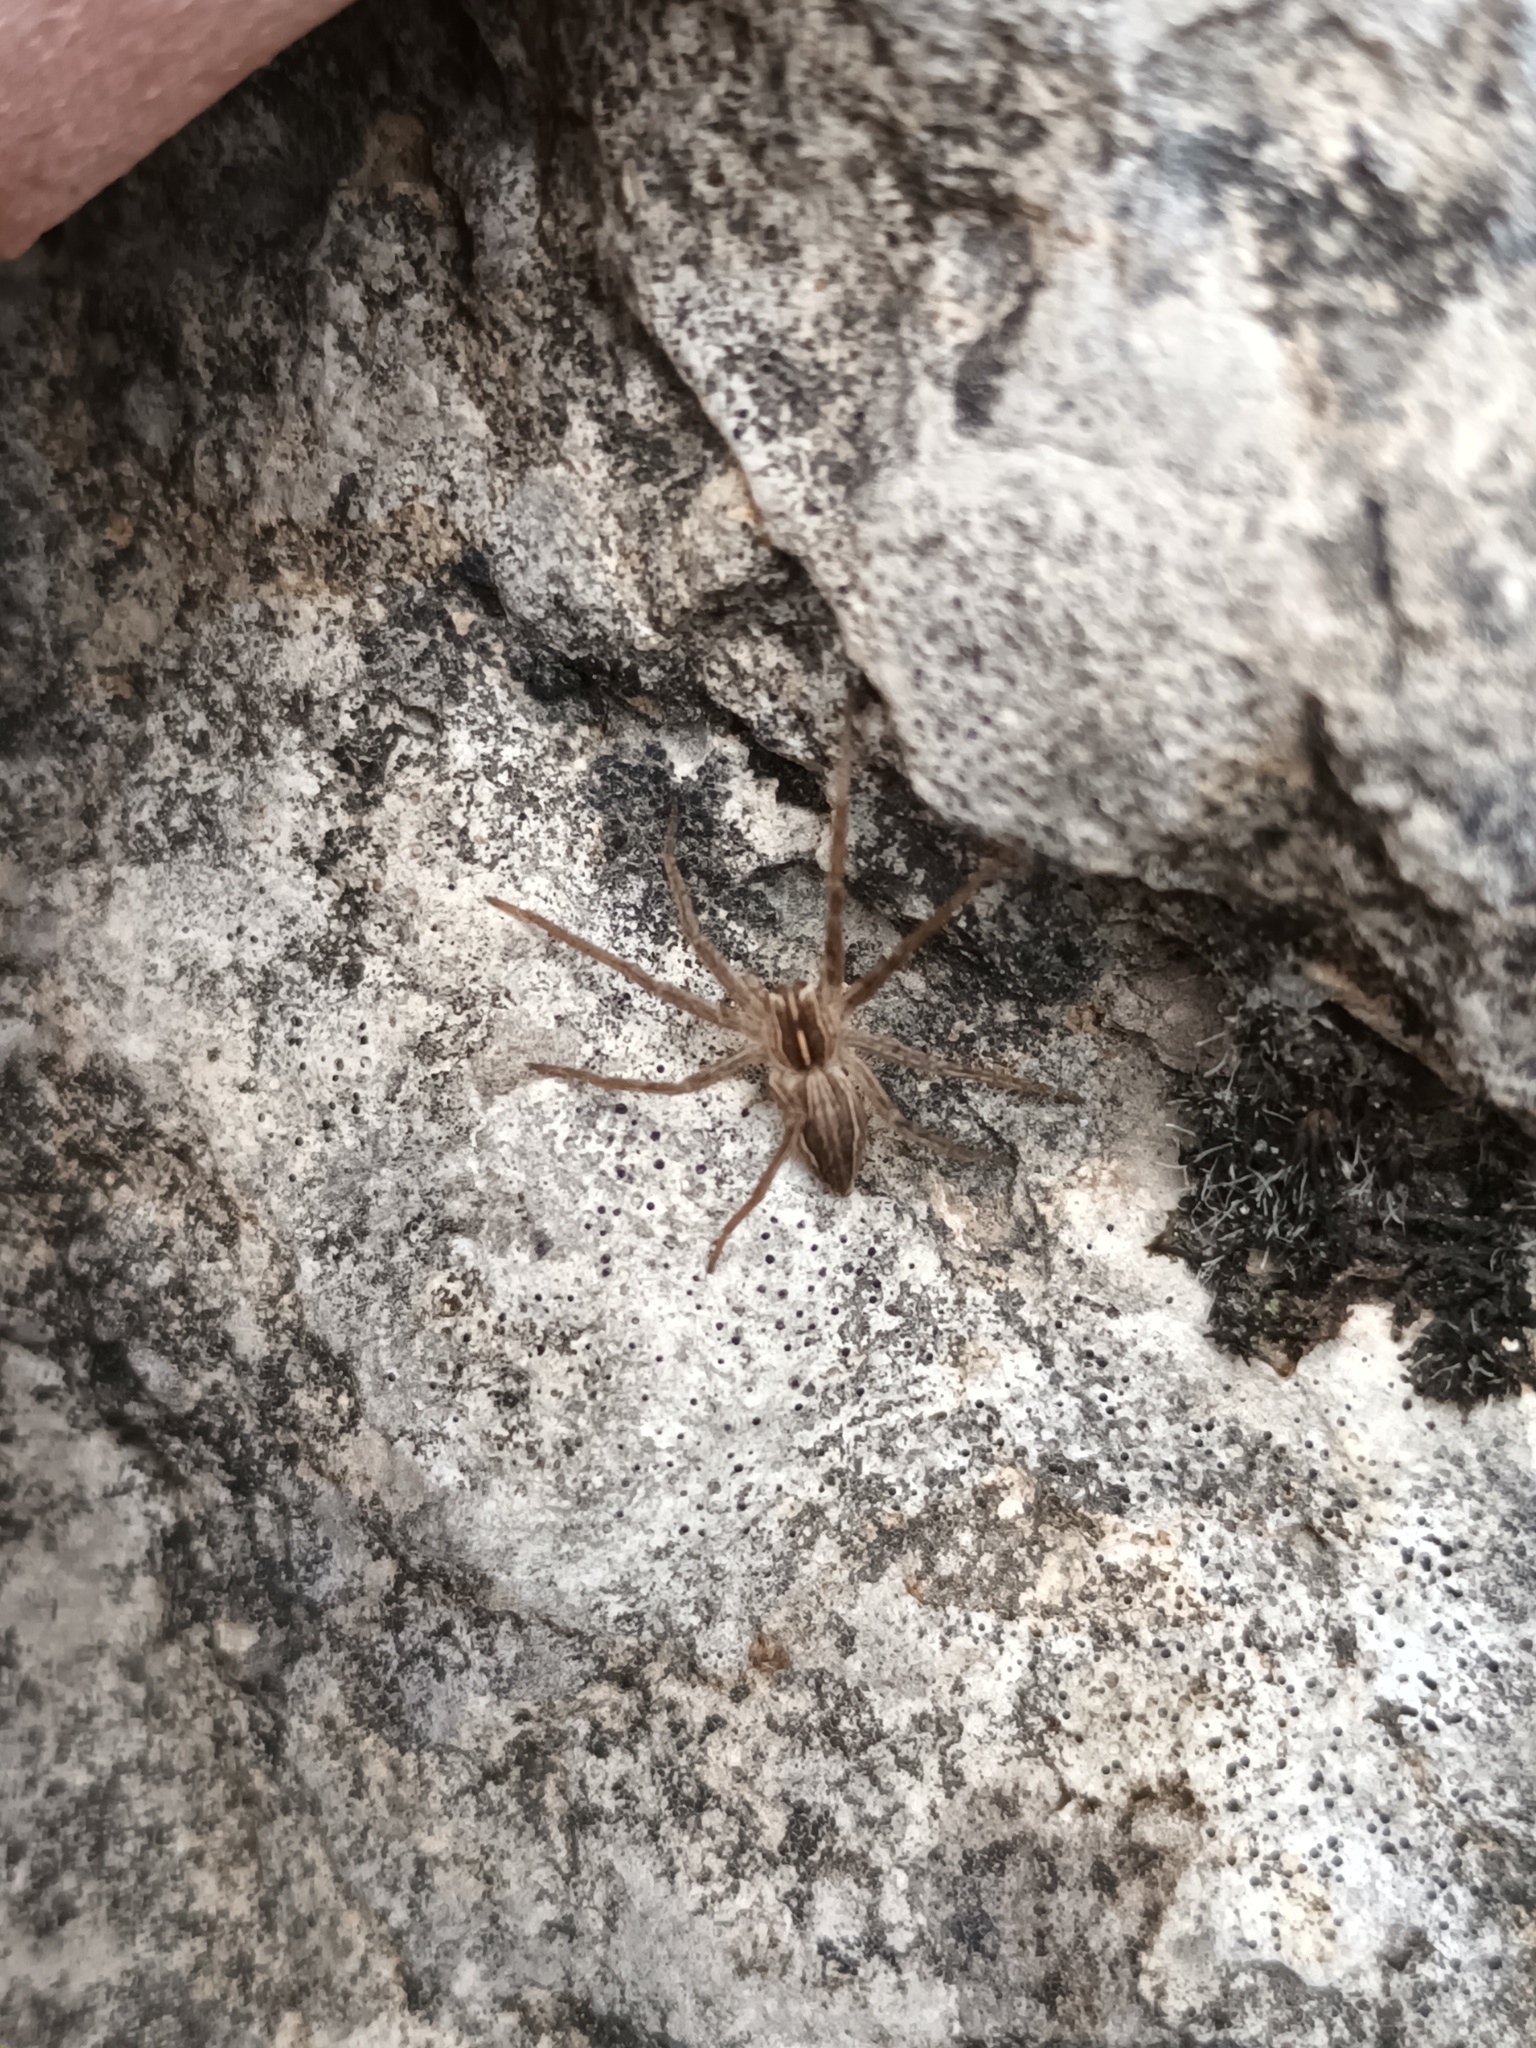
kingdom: Animalia
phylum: Arthropoda
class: Arachnida
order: Araneae
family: Pisauridae
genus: Pisaura
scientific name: Pisaura mirabilis
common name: Tent spider
